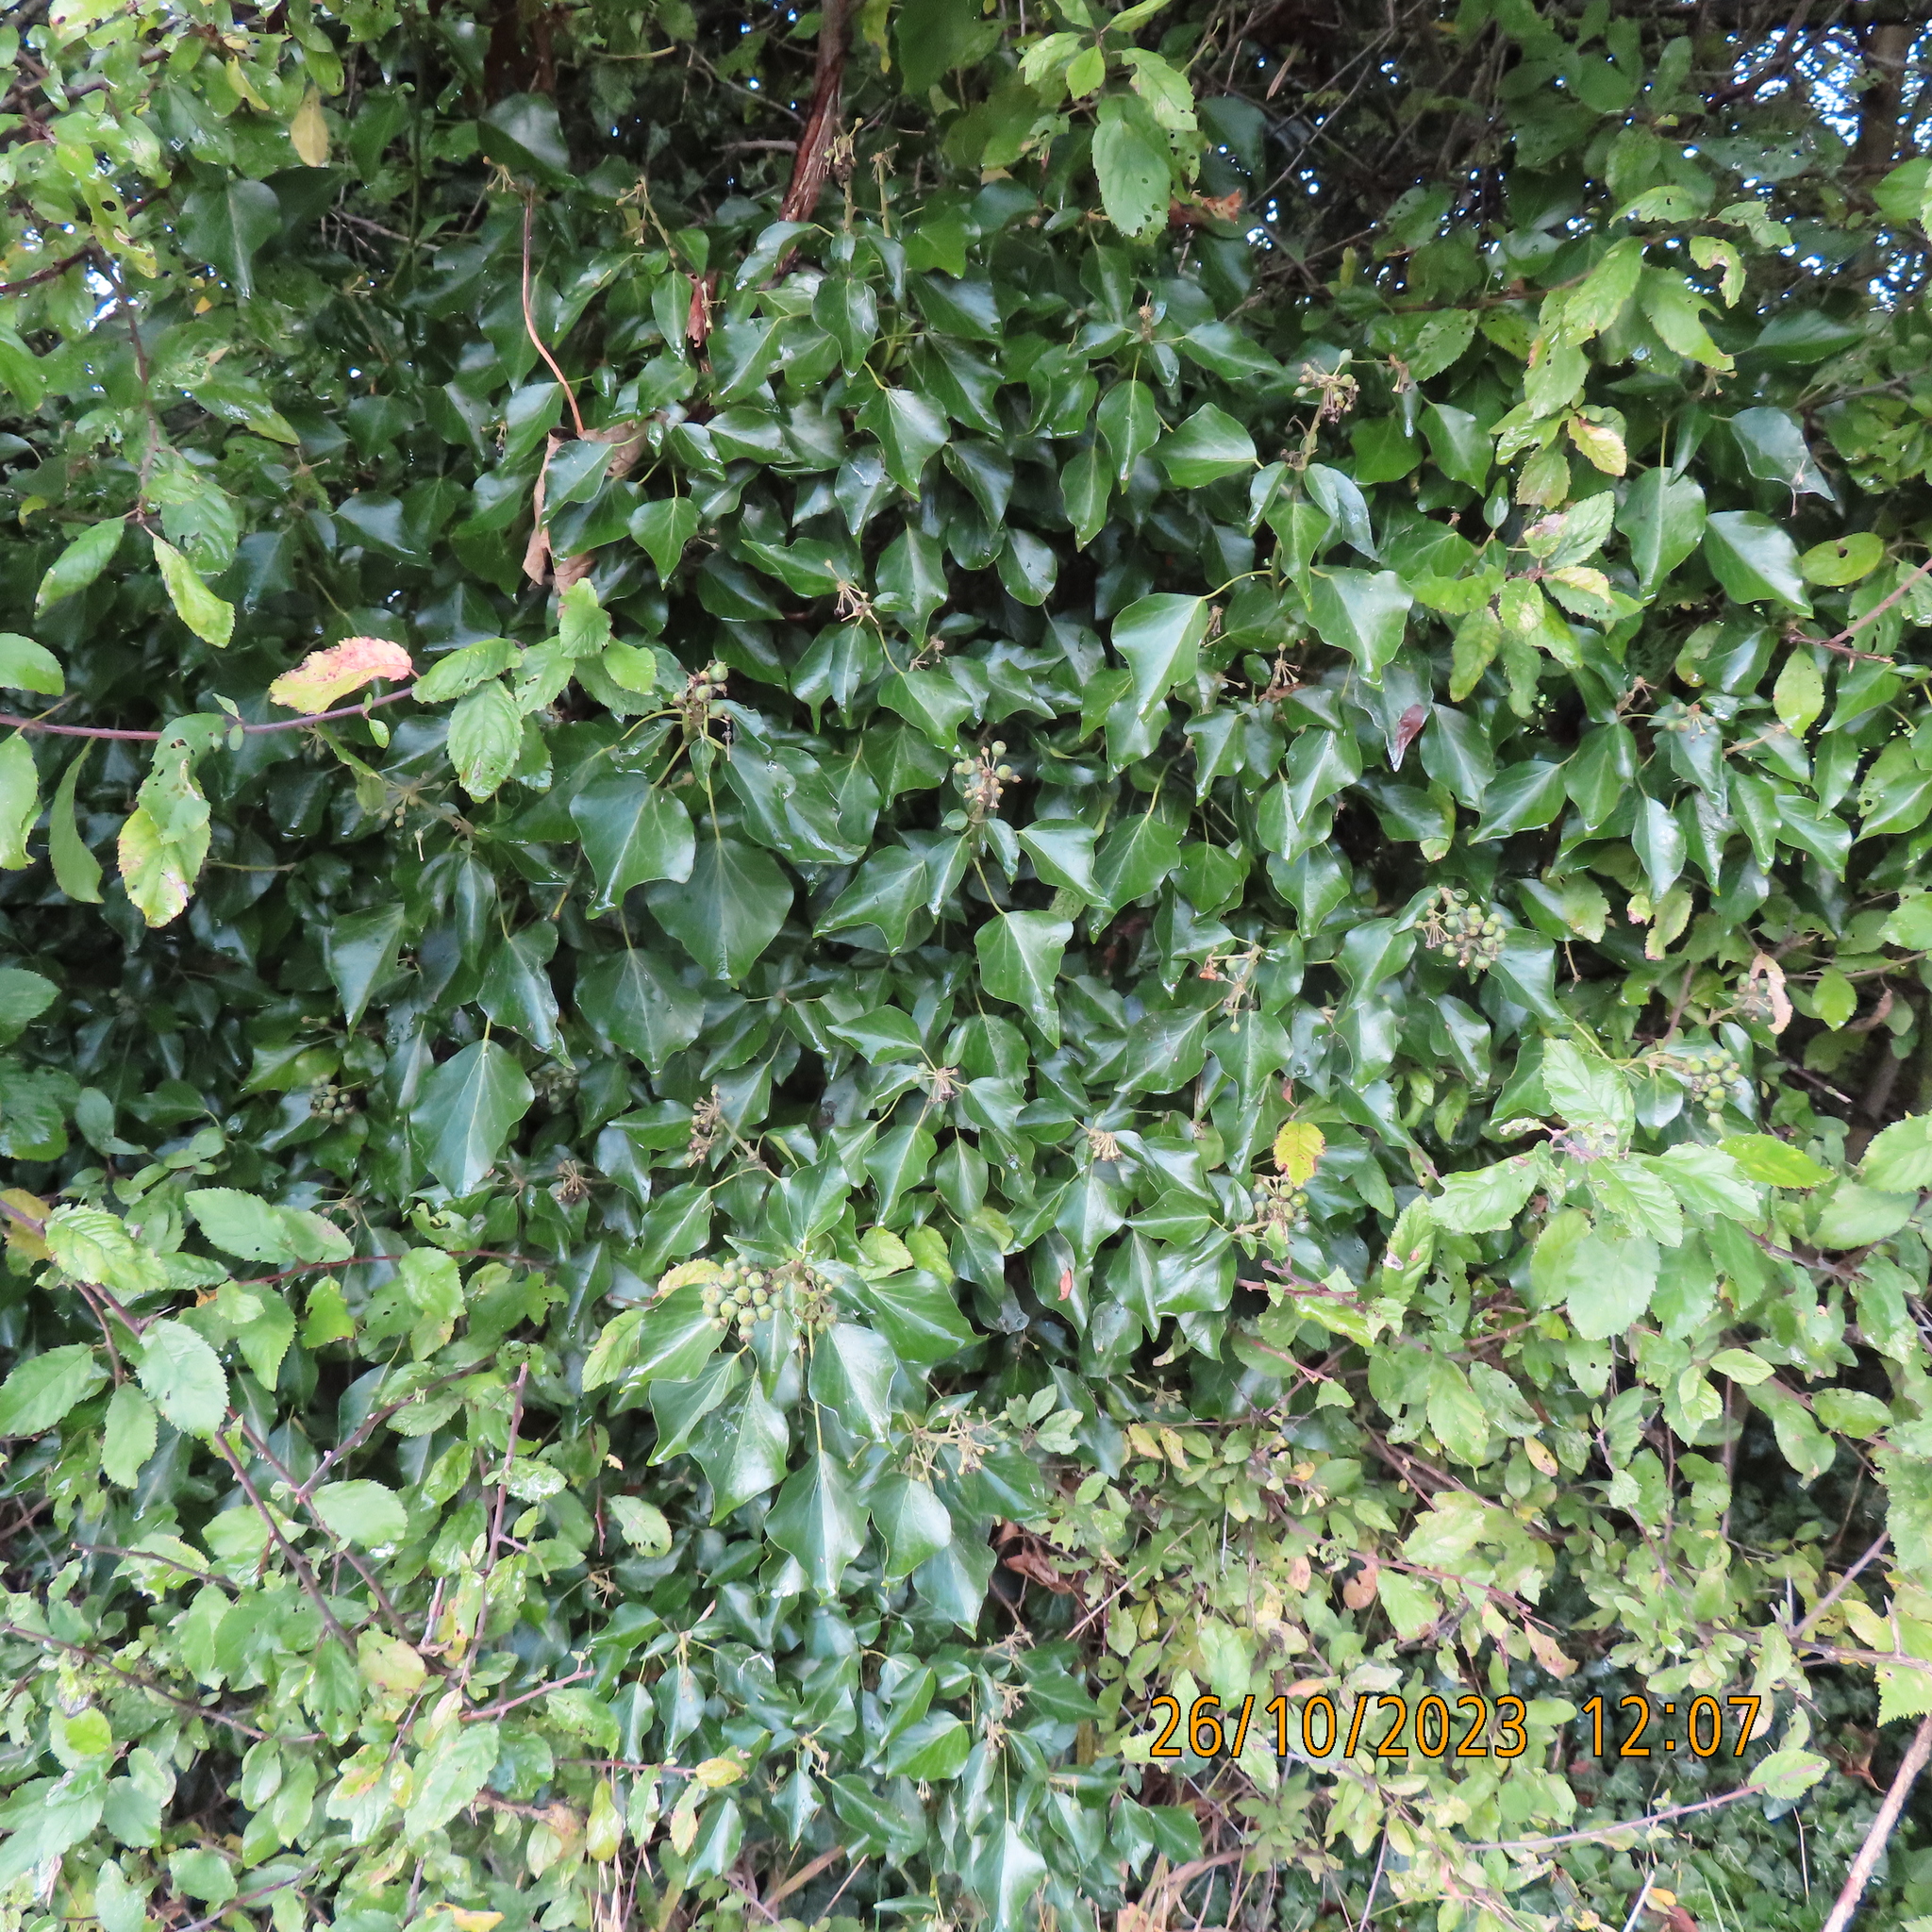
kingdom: Plantae
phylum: Tracheophyta
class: Magnoliopsida
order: Apiales
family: Araliaceae
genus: Hedera
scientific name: Hedera helix
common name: Ivy
